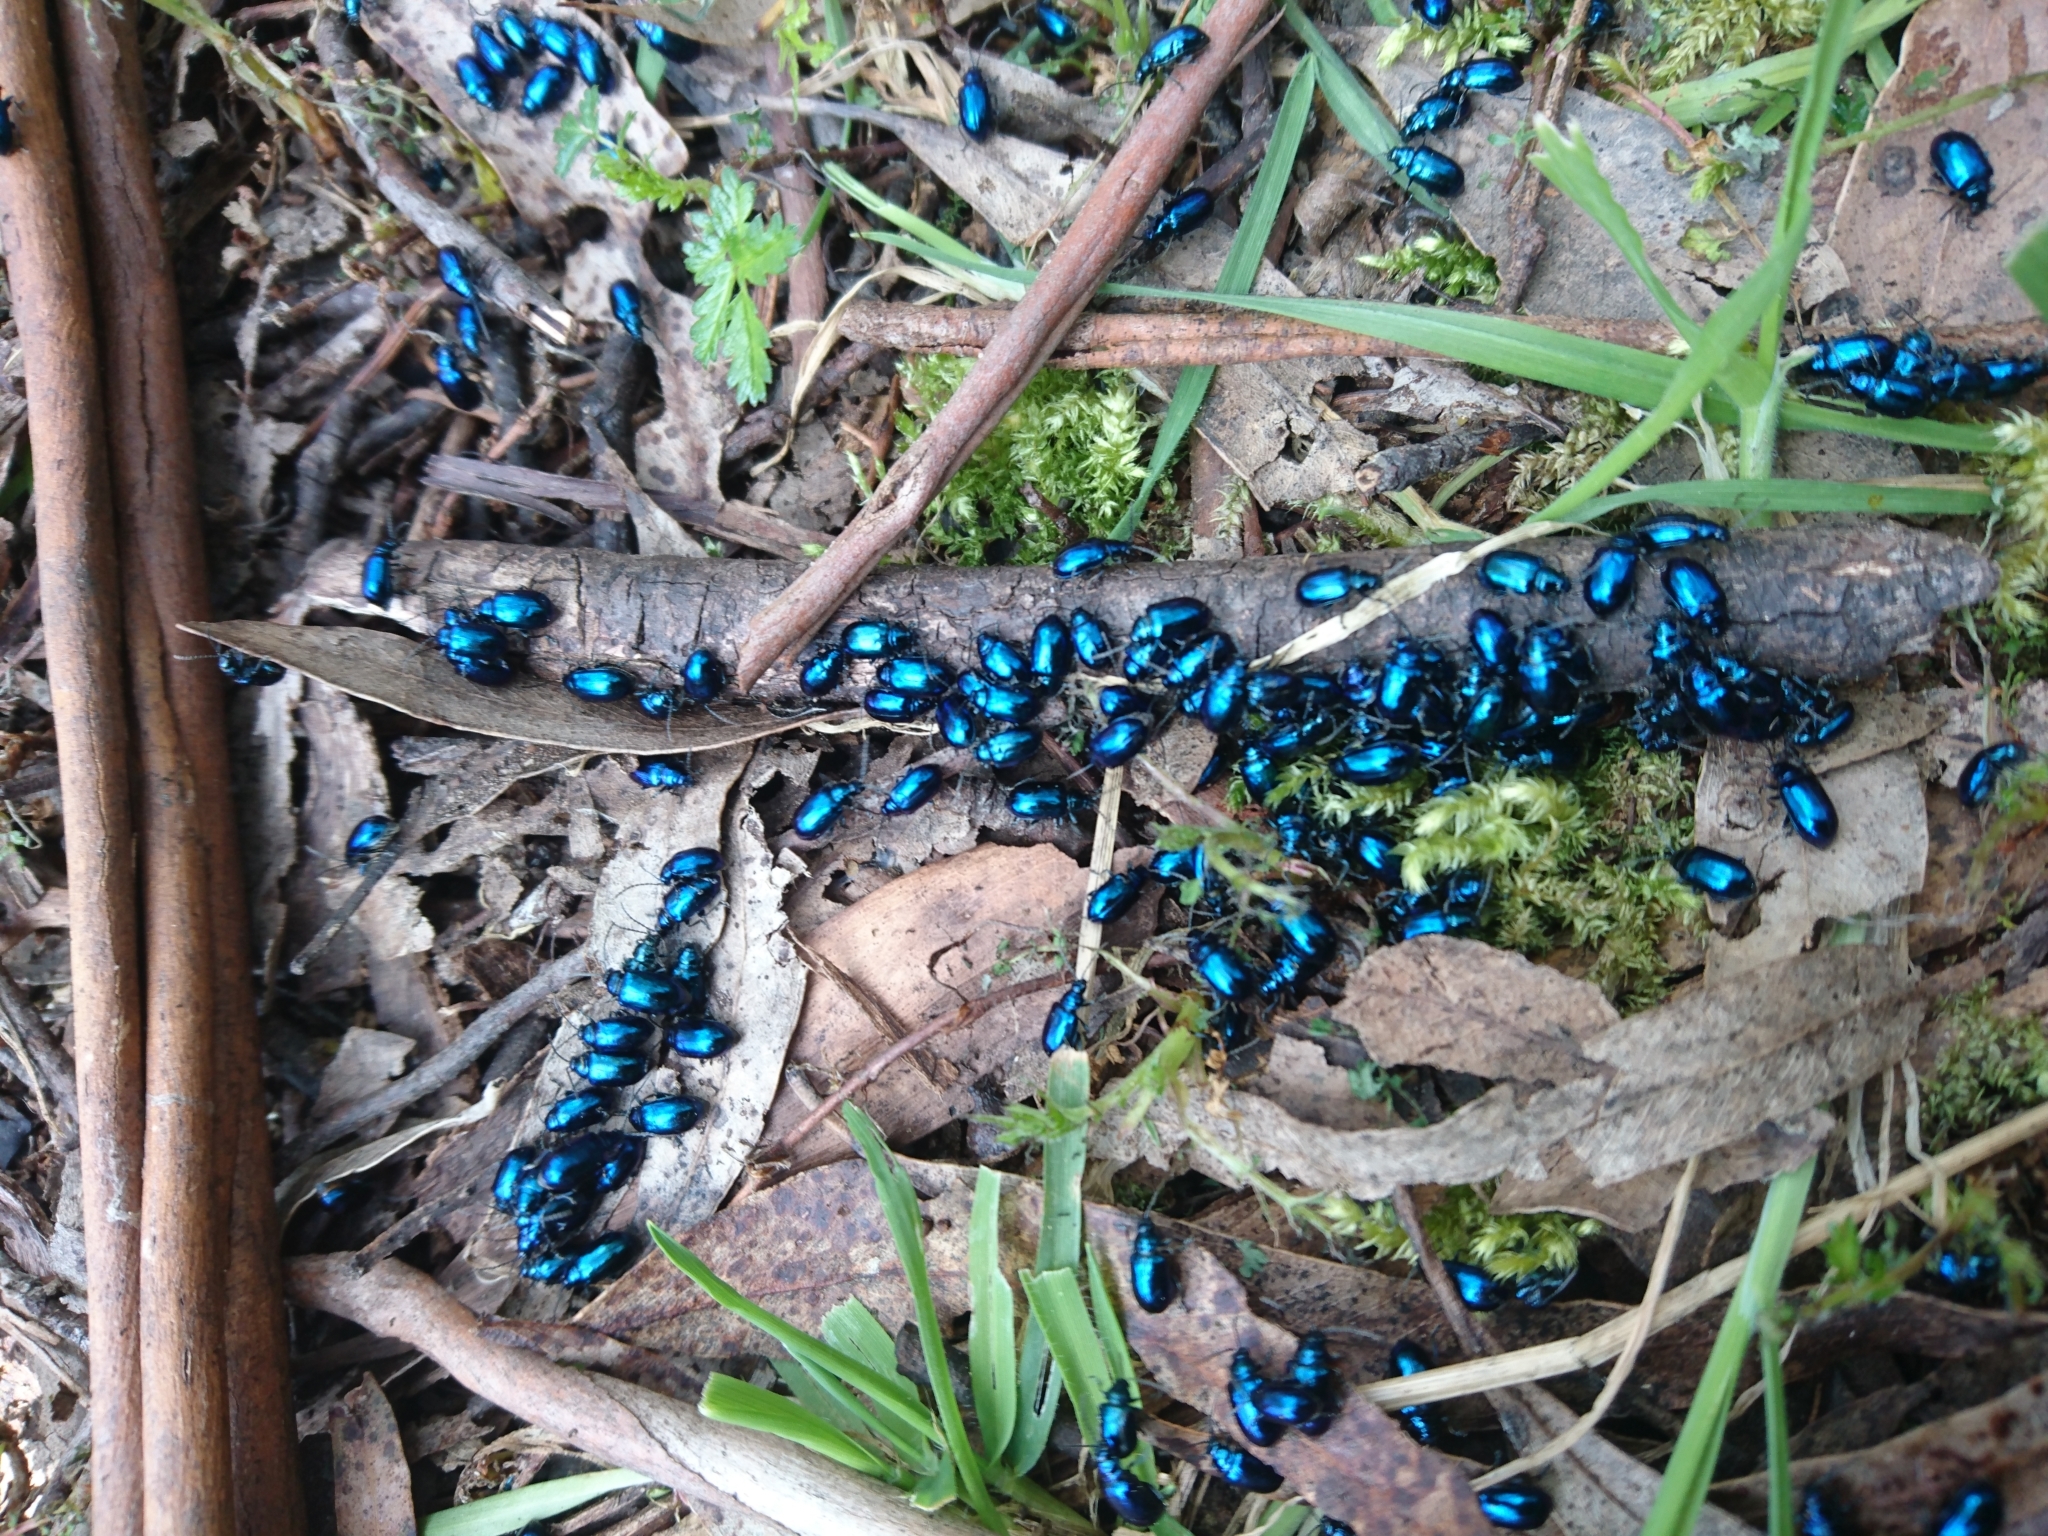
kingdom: Animalia
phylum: Arthropoda
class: Insecta
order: Coleoptera
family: Chrysomelidae
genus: Altica
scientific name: Altica corusca
